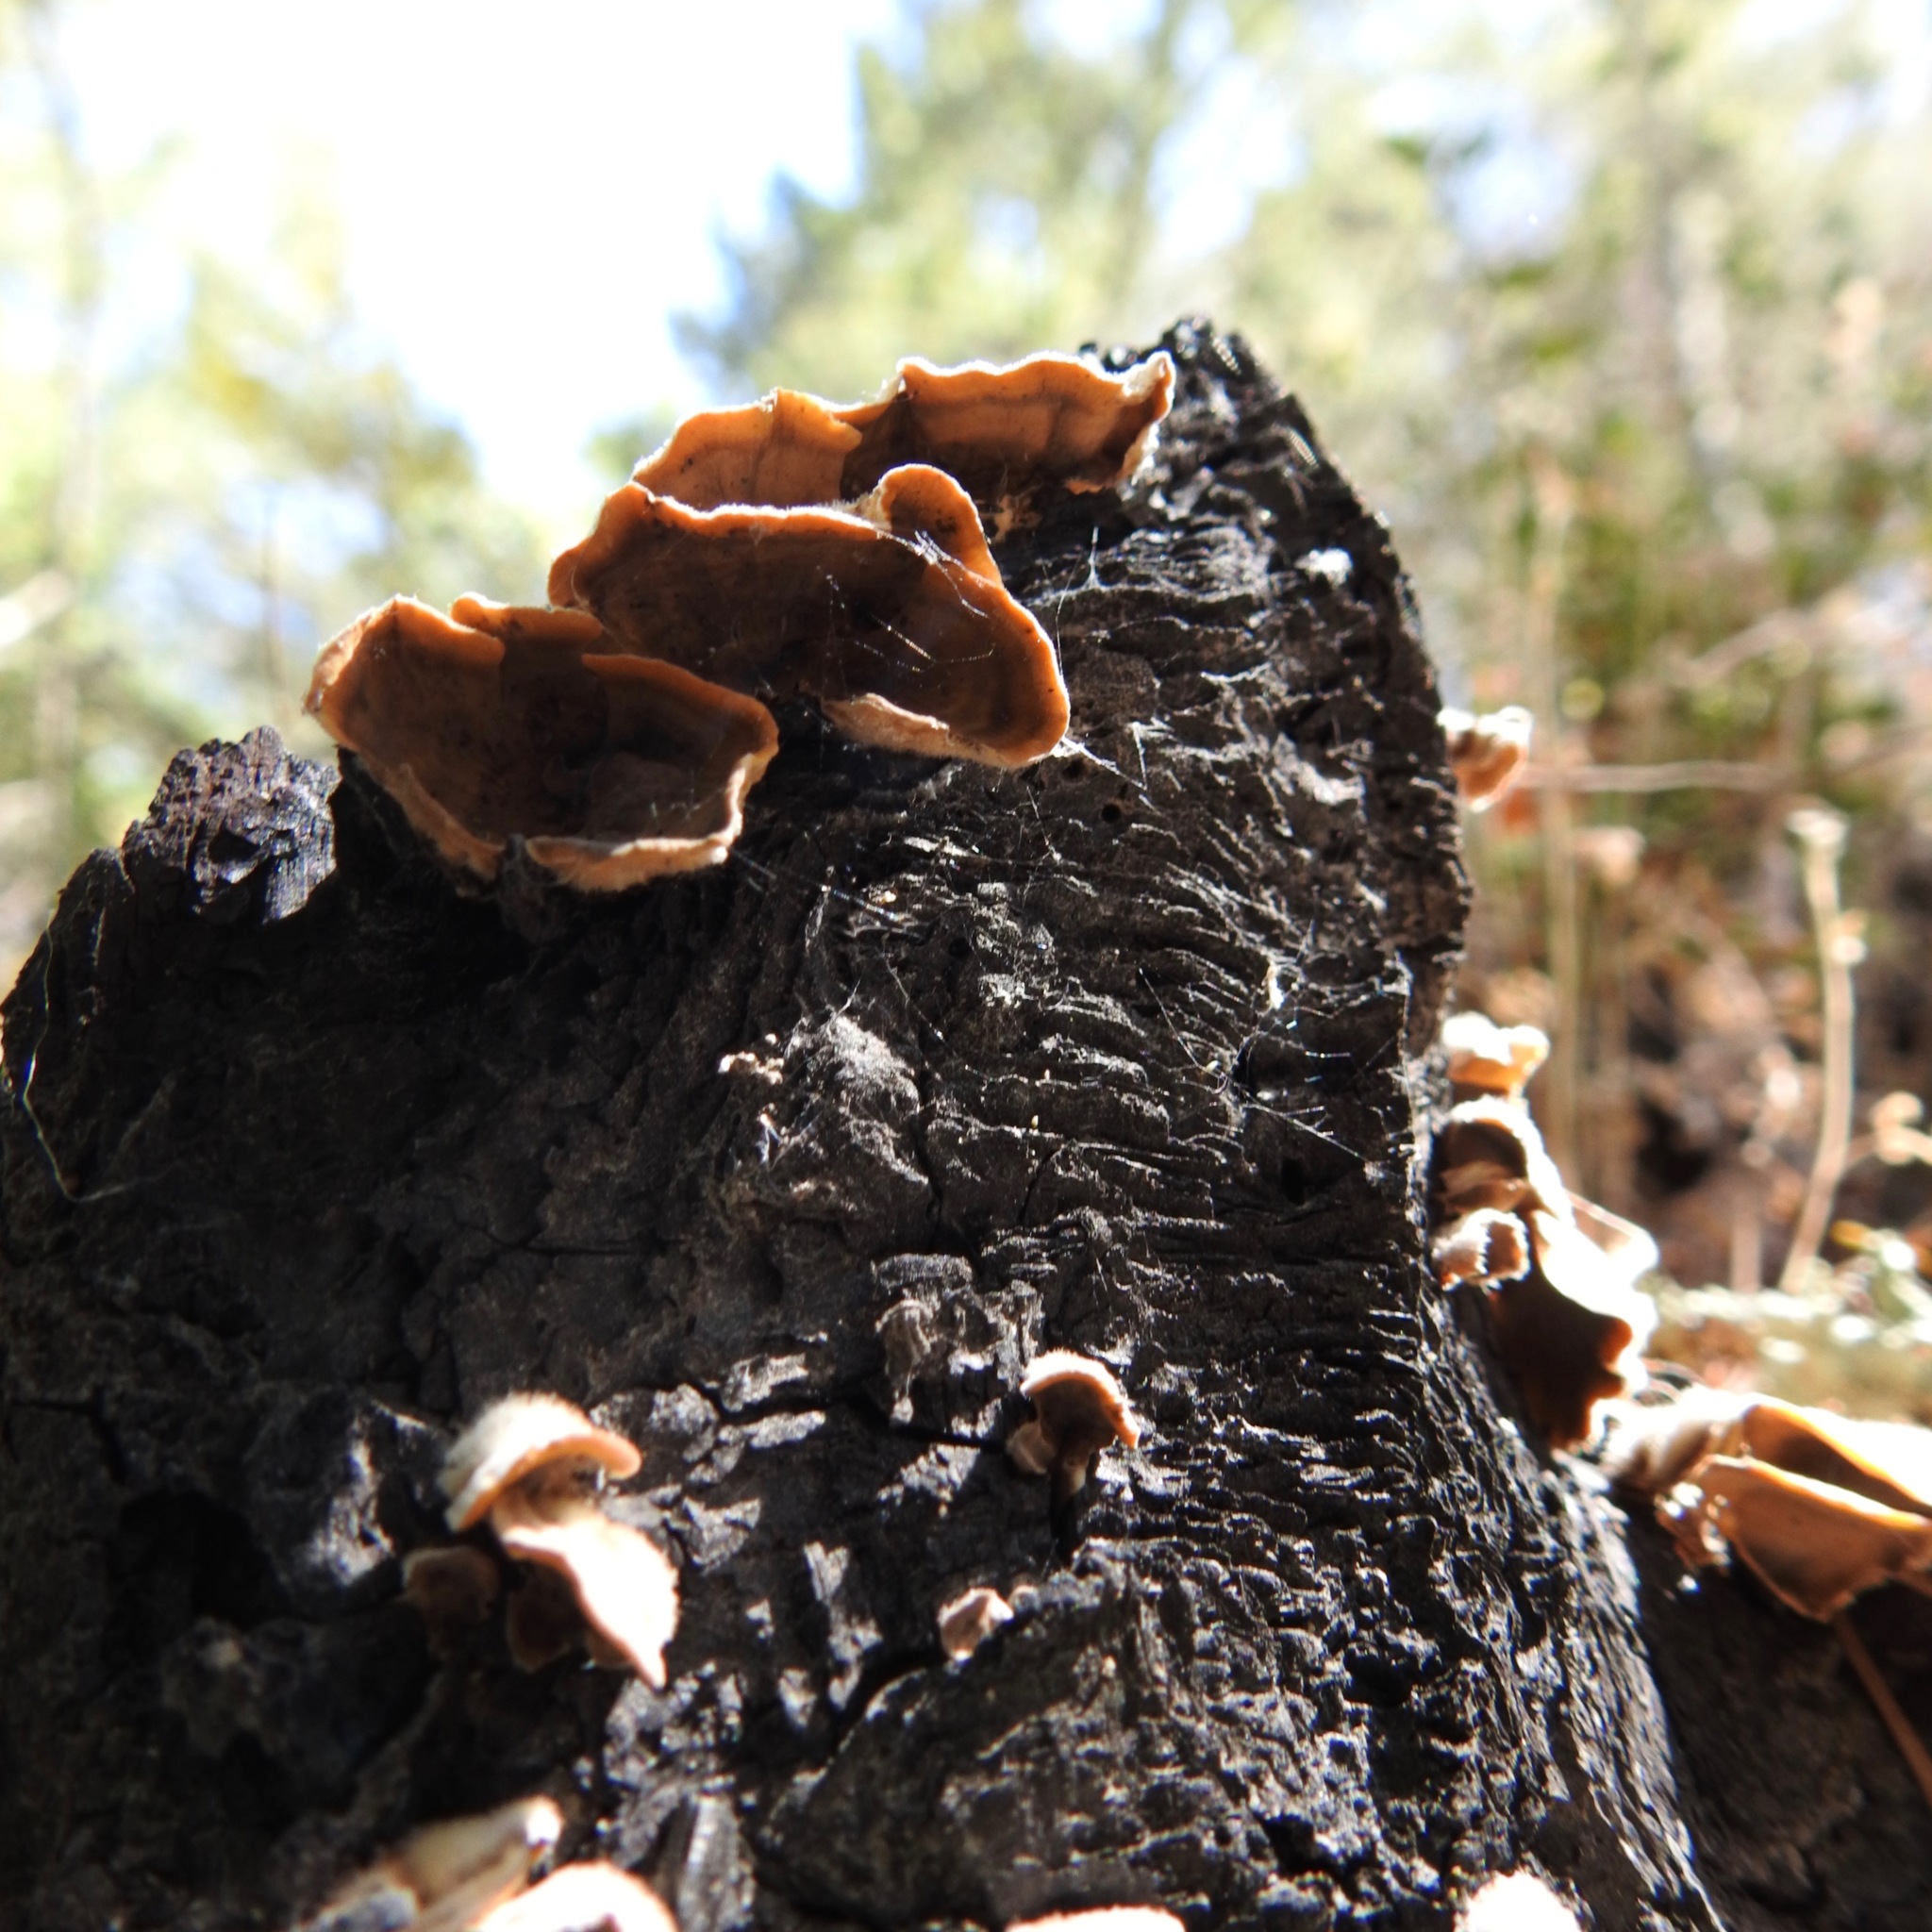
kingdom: Fungi
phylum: Basidiomycota
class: Tremellomycetes
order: Tremellales
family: Naemateliaceae
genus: Naematelia
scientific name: Naematelia aurantia
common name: Golden ear
